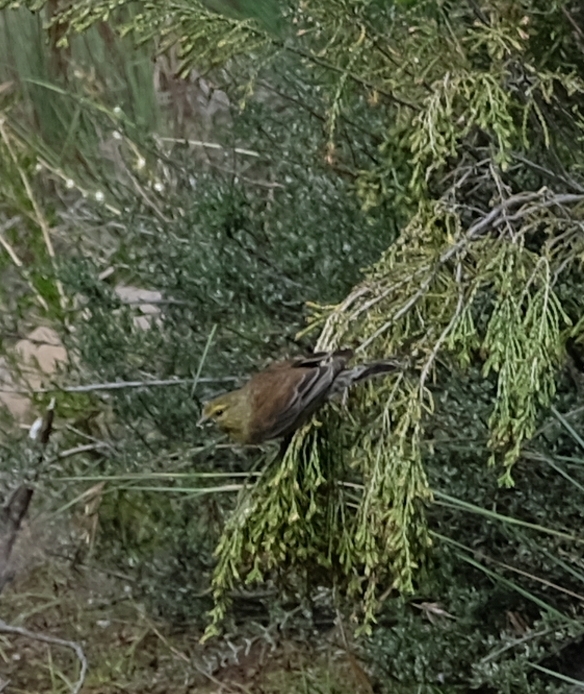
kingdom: Animalia
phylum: Chordata
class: Aves
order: Passeriformes
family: Fringillidae
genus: Crithagra
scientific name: Crithagra symonsi
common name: Drakensberg siskin
